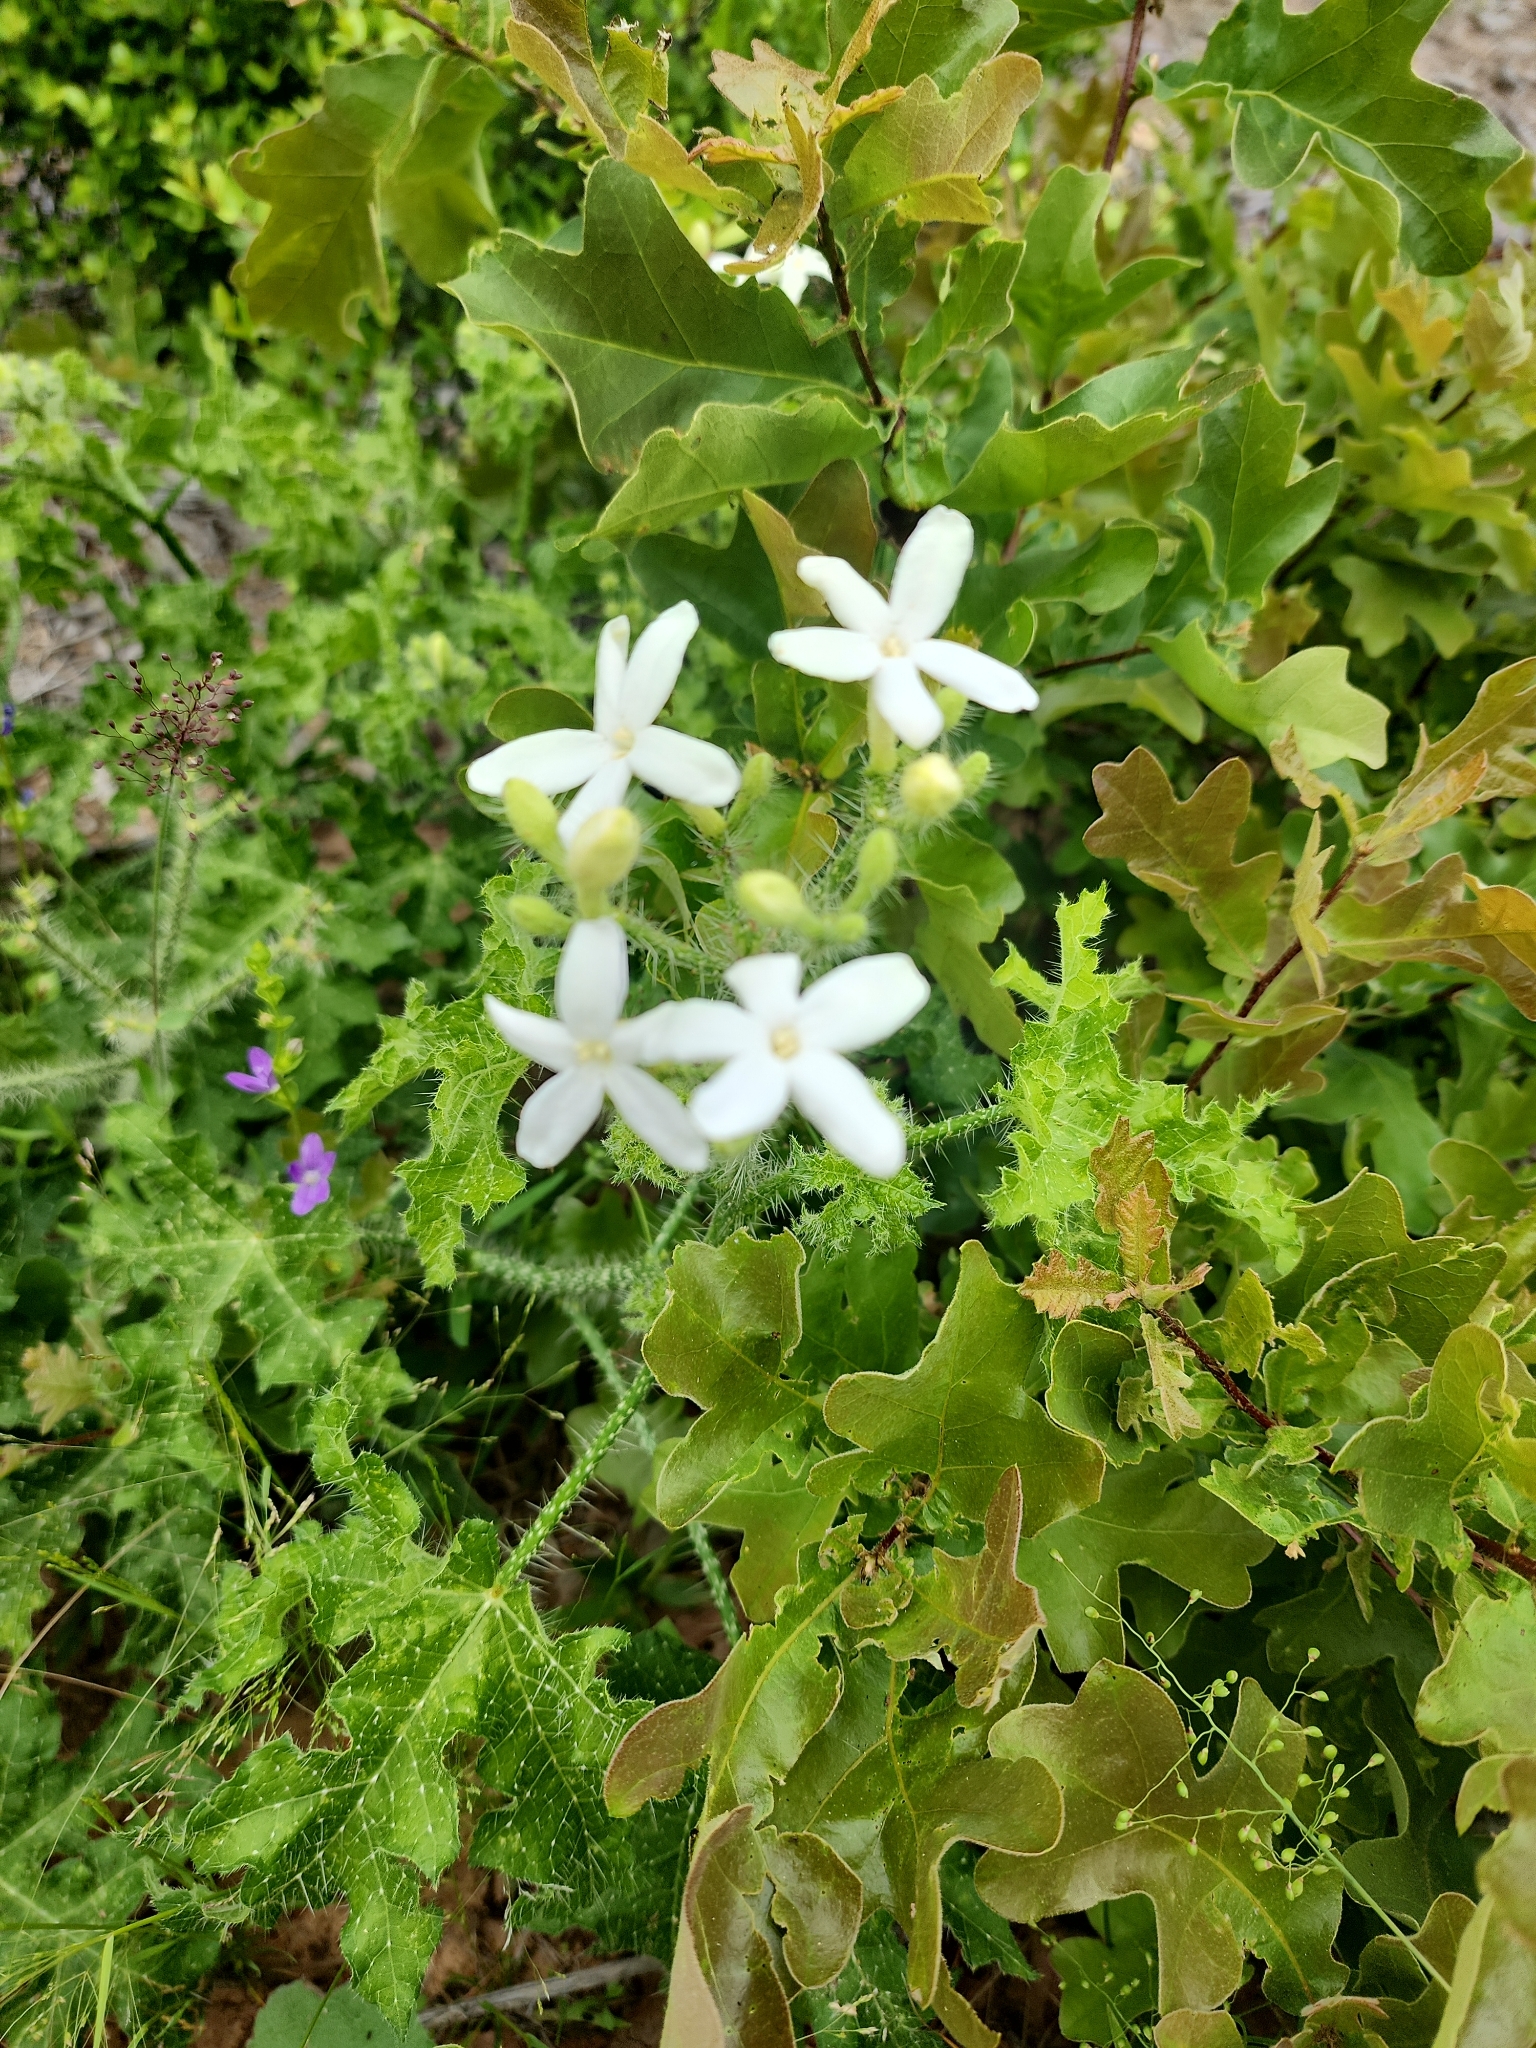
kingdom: Plantae
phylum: Tracheophyta
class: Magnoliopsida
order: Malpighiales
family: Euphorbiaceae
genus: Cnidoscolus
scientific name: Cnidoscolus texanus
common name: Texas bull-nettle
